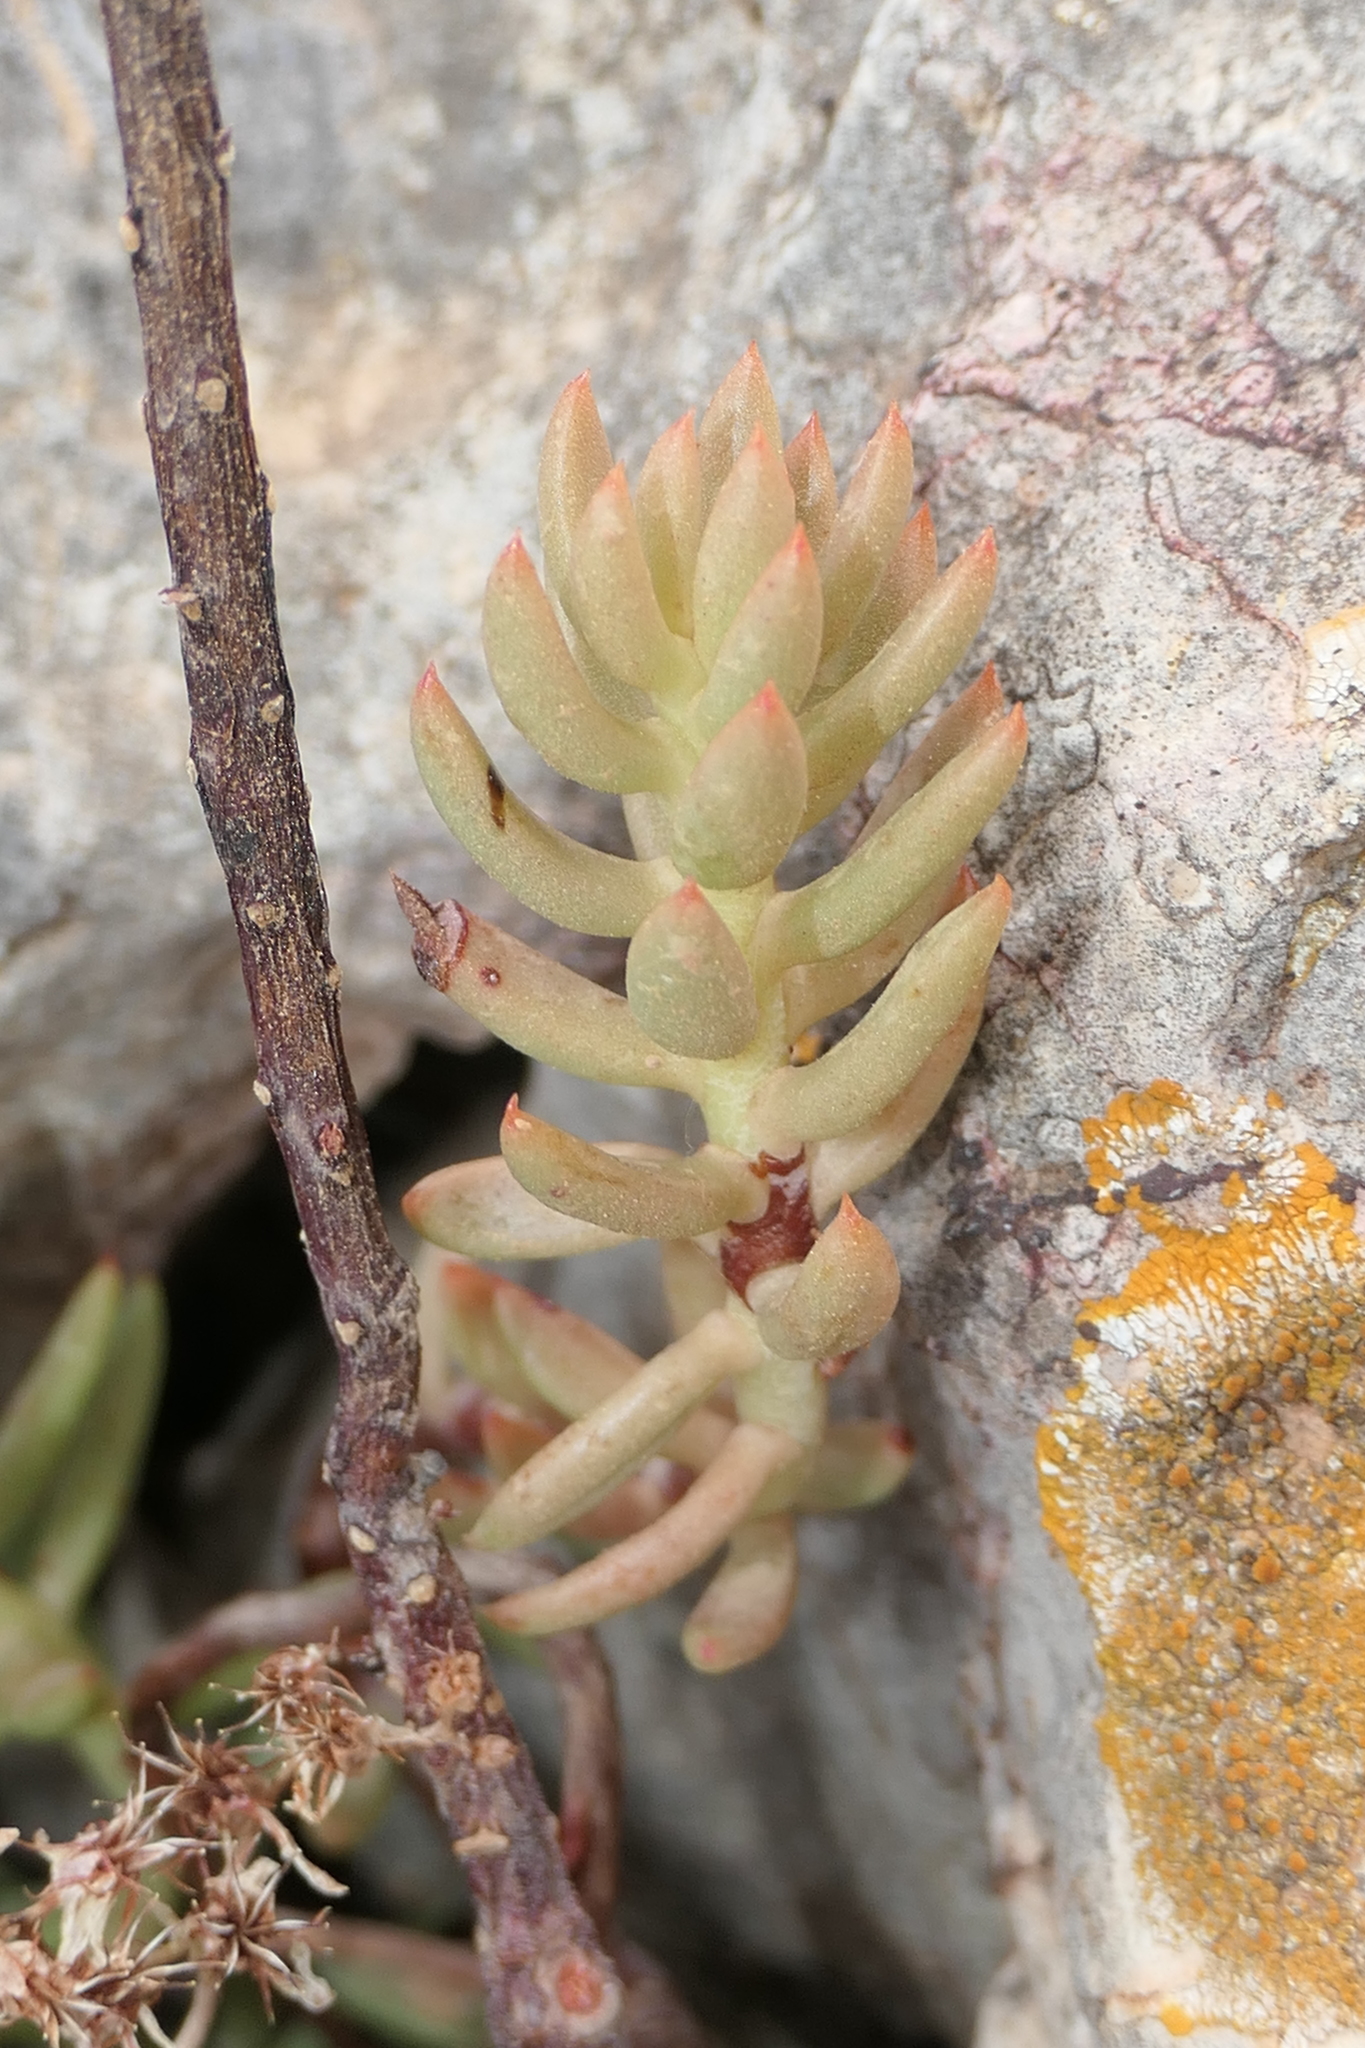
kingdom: Plantae
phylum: Tracheophyta
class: Magnoliopsida
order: Saxifragales
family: Crassulaceae
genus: Petrosedum
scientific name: Petrosedum sediforme
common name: Pale stonecrop
